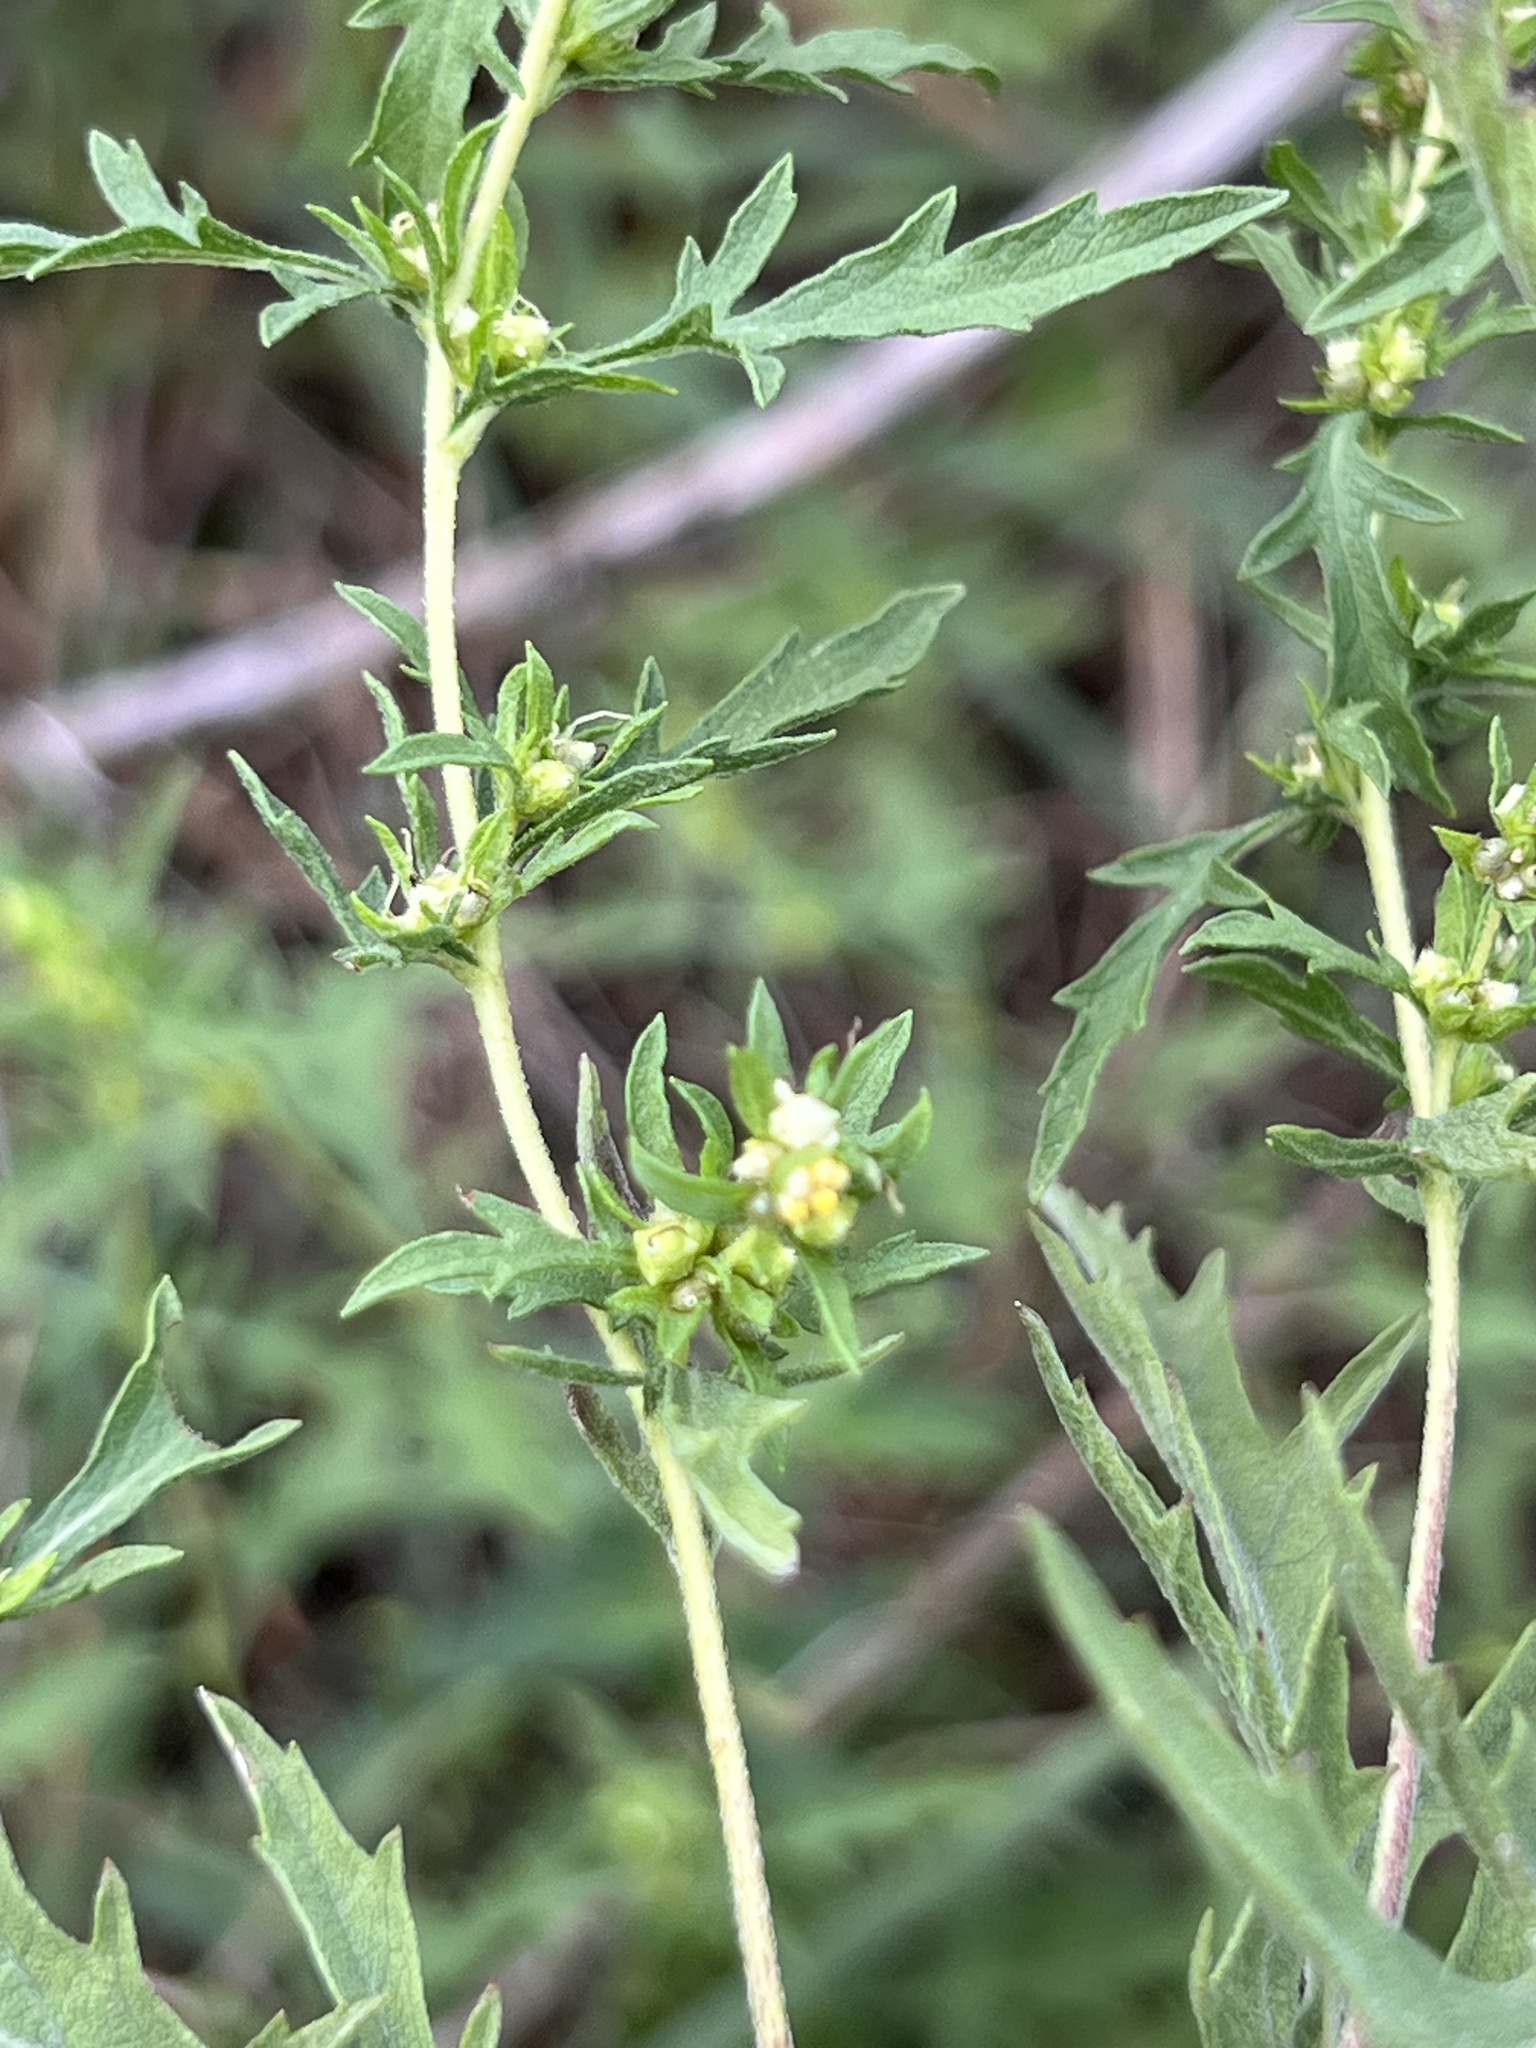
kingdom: Plantae
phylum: Tracheophyta
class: Magnoliopsida
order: Asterales
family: Asteraceae
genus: Ambrosia
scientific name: Ambrosia psilostachya
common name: Perennial ragweed
